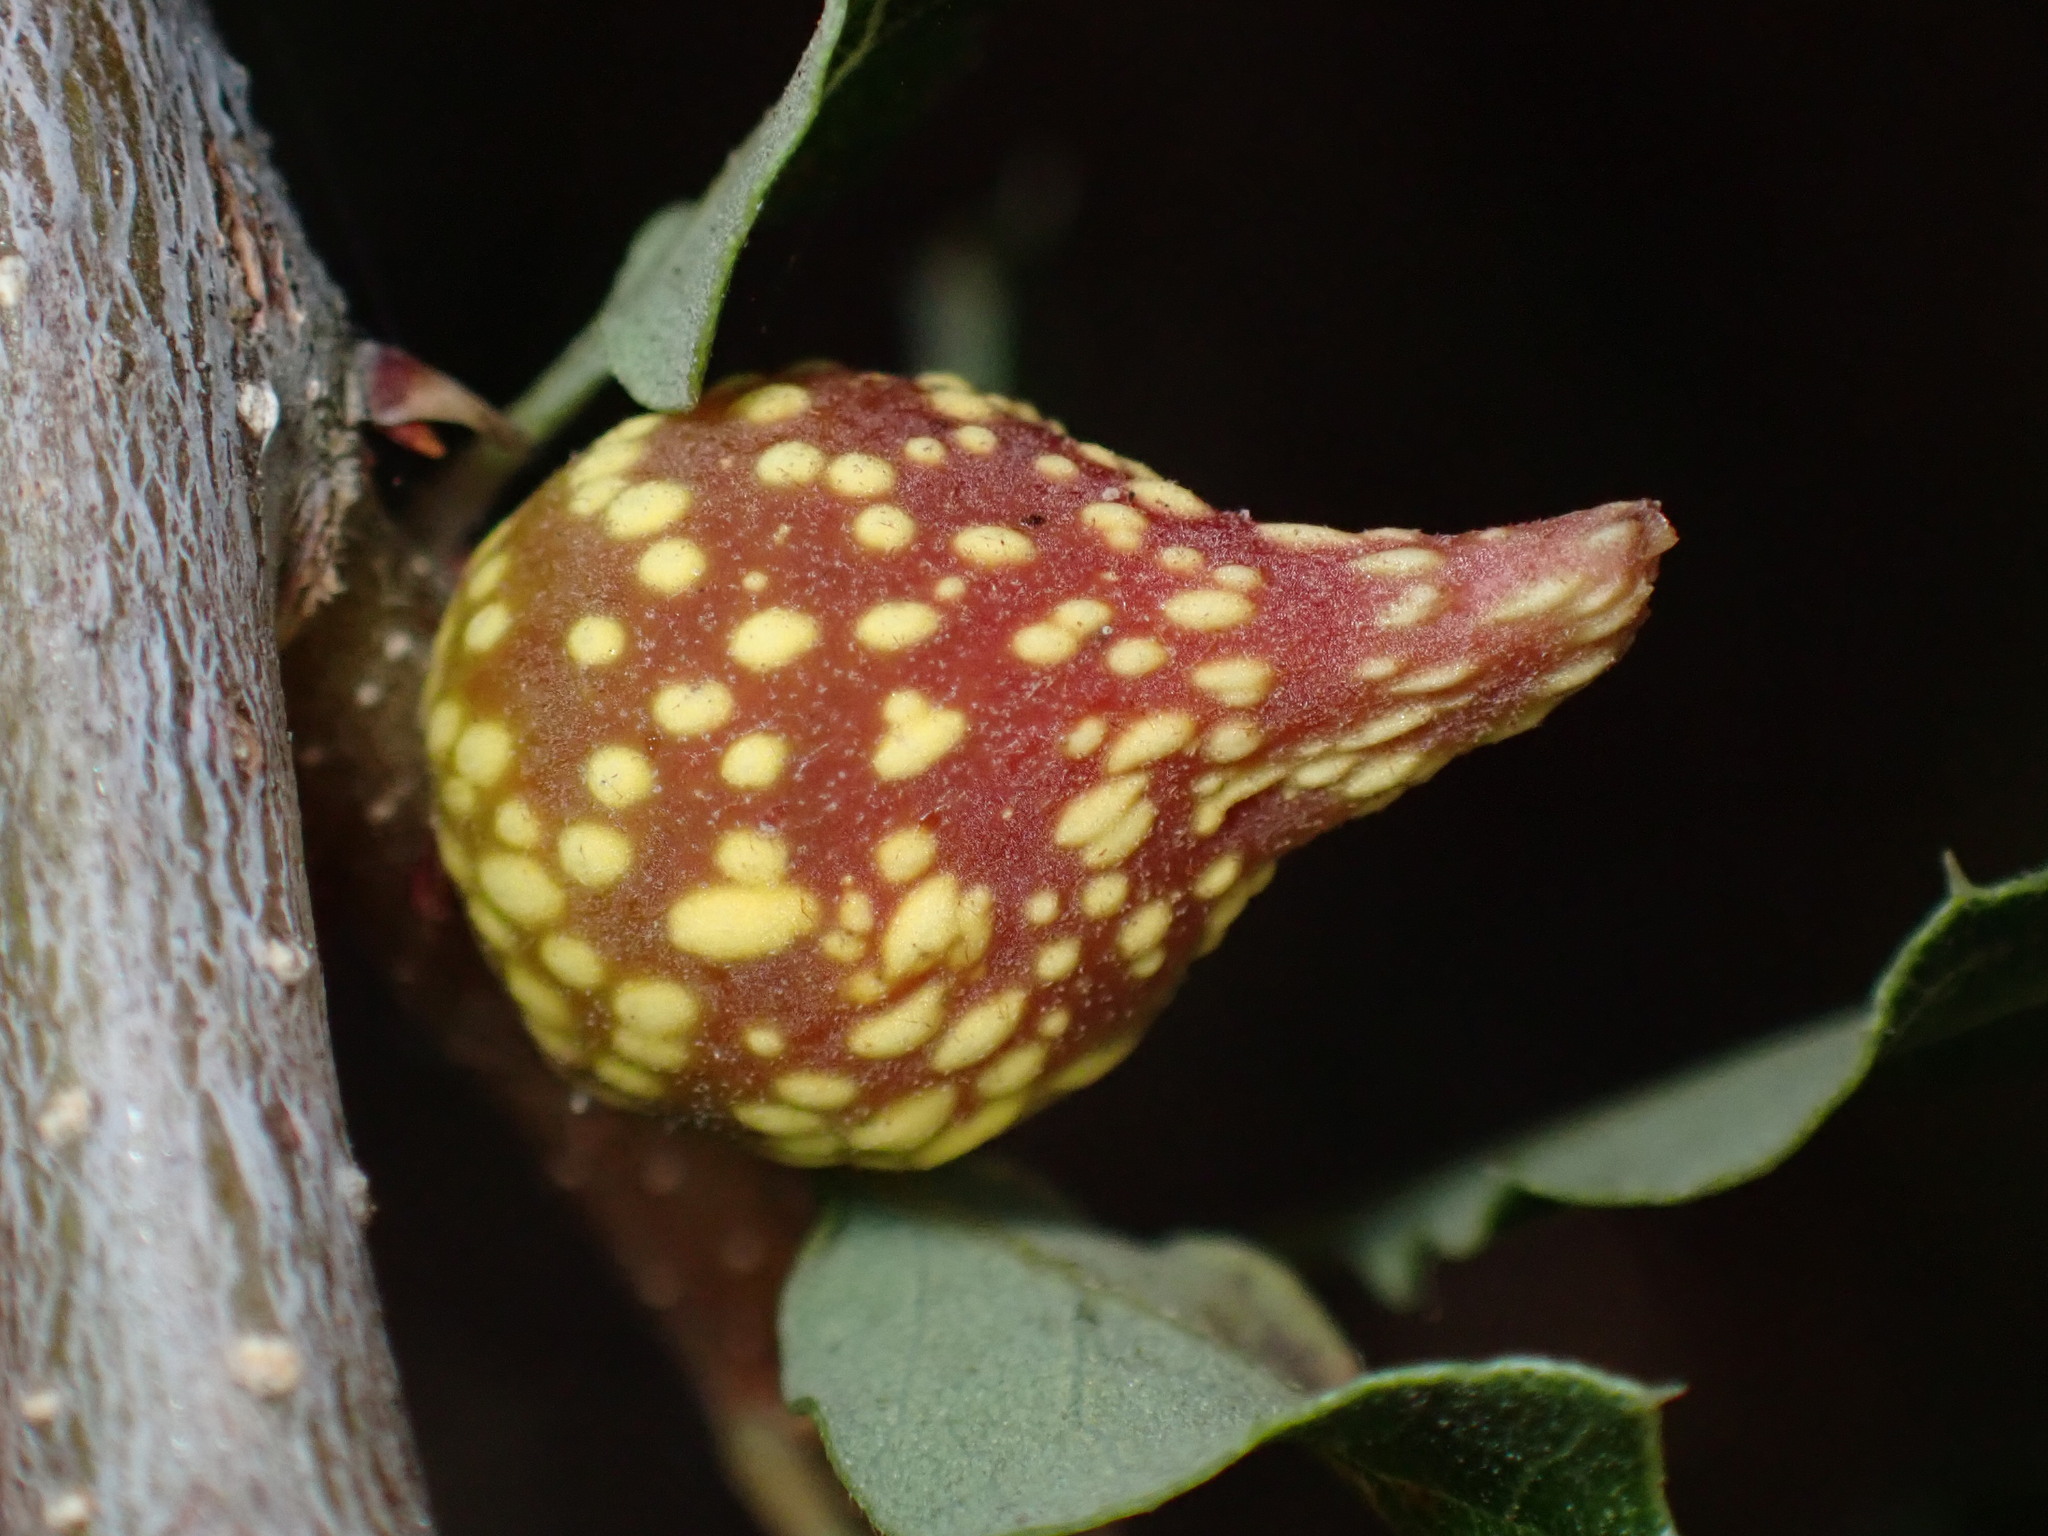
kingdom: Animalia
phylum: Arthropoda
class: Insecta
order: Hymenoptera
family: Cynipidae
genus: Burnettweldia
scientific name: Burnettweldia
